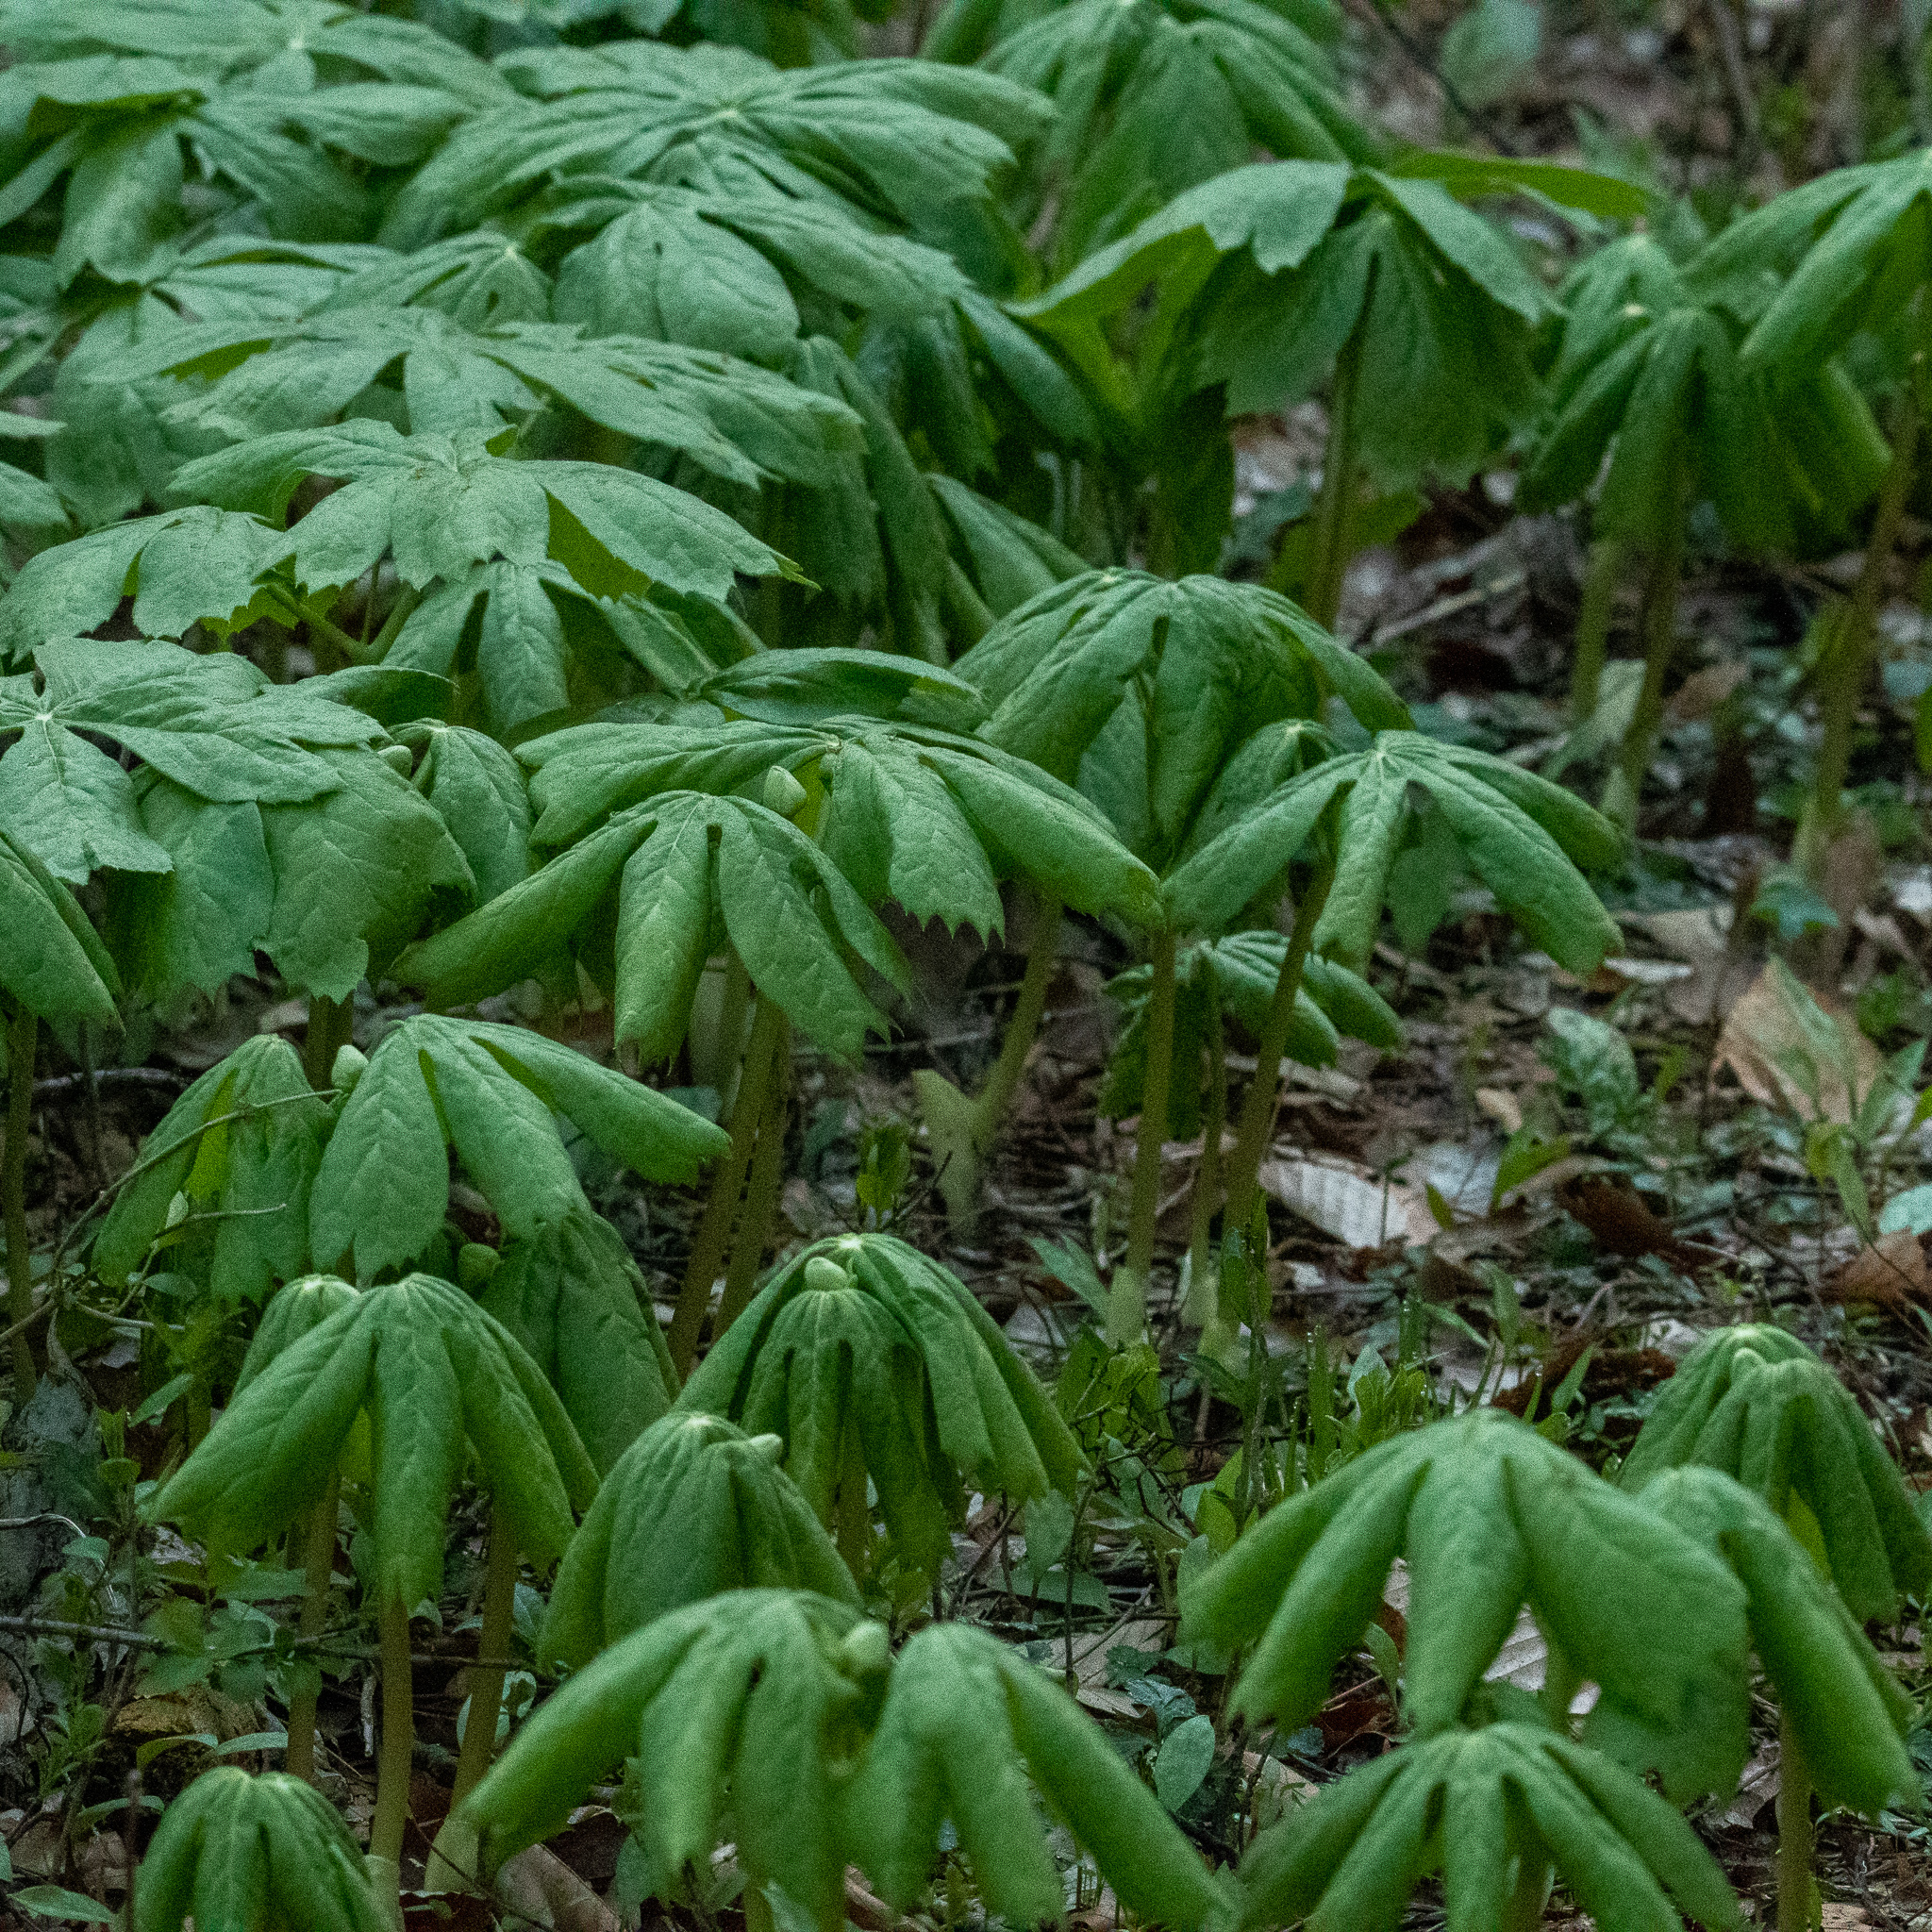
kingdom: Plantae
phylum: Tracheophyta
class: Magnoliopsida
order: Ranunculales
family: Berberidaceae
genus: Podophyllum
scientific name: Podophyllum peltatum
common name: Wild mandrake
